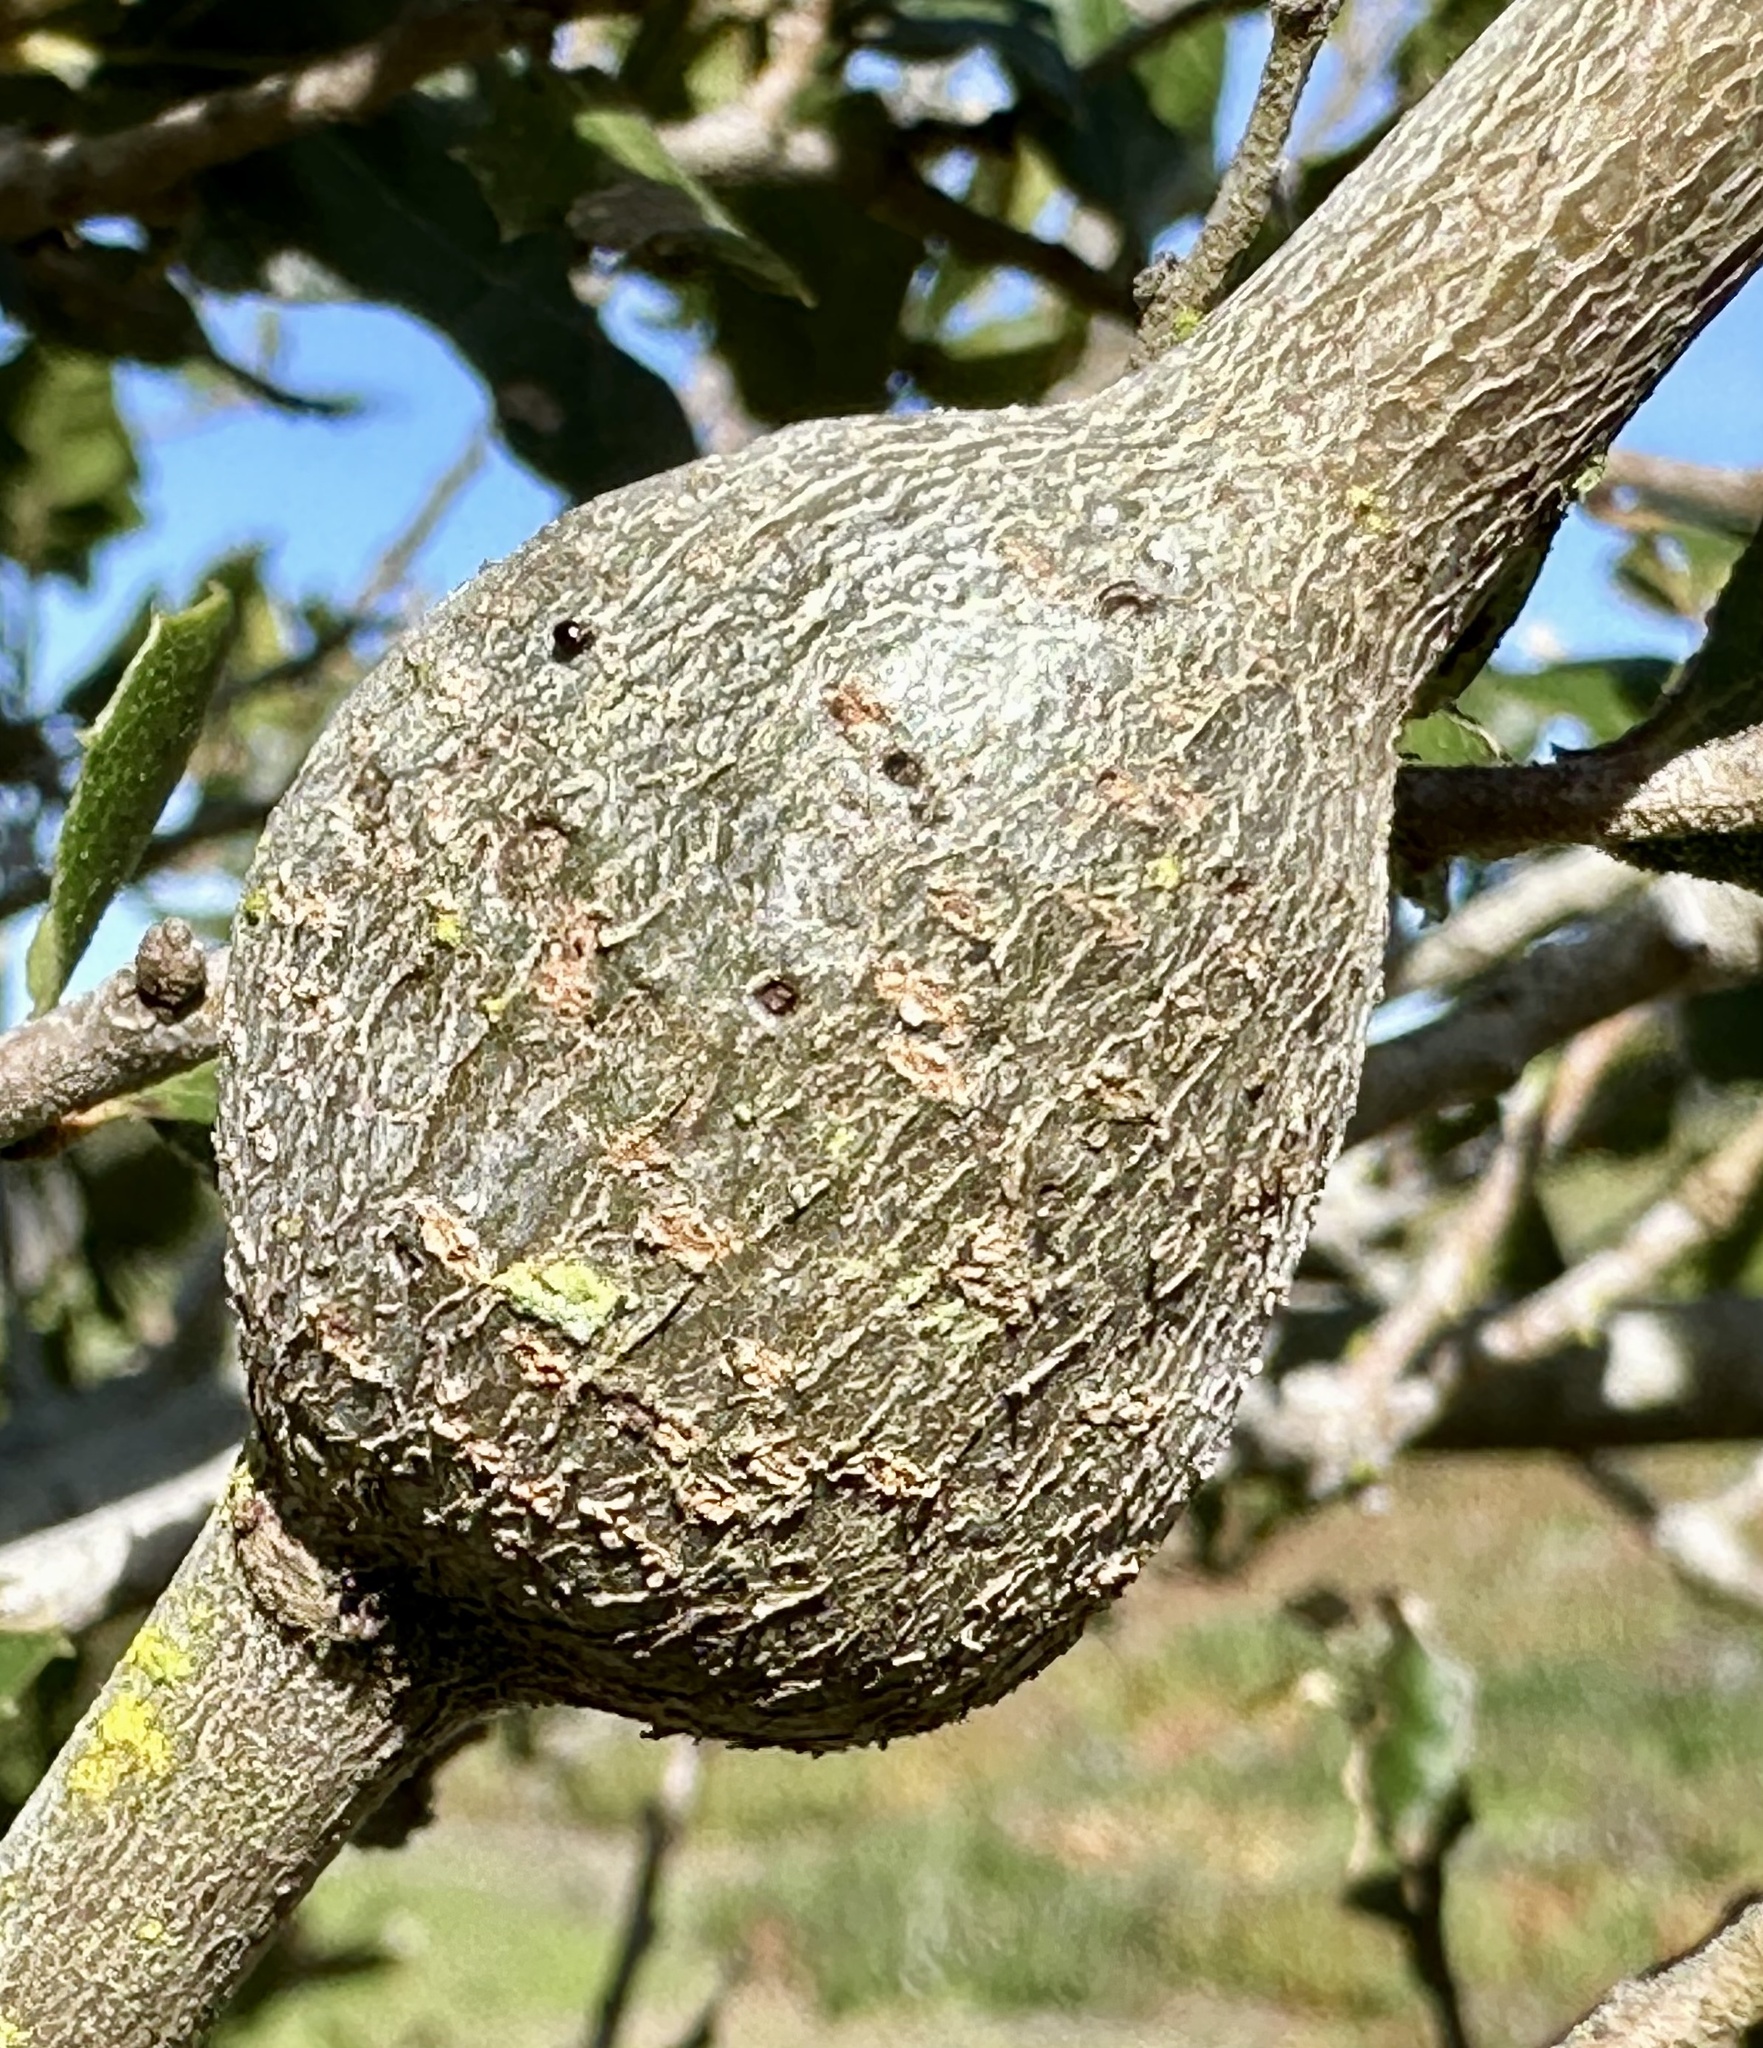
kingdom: Animalia
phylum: Arthropoda
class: Insecta
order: Hymenoptera
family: Cynipidae
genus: Callirhytis
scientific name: Callirhytis
